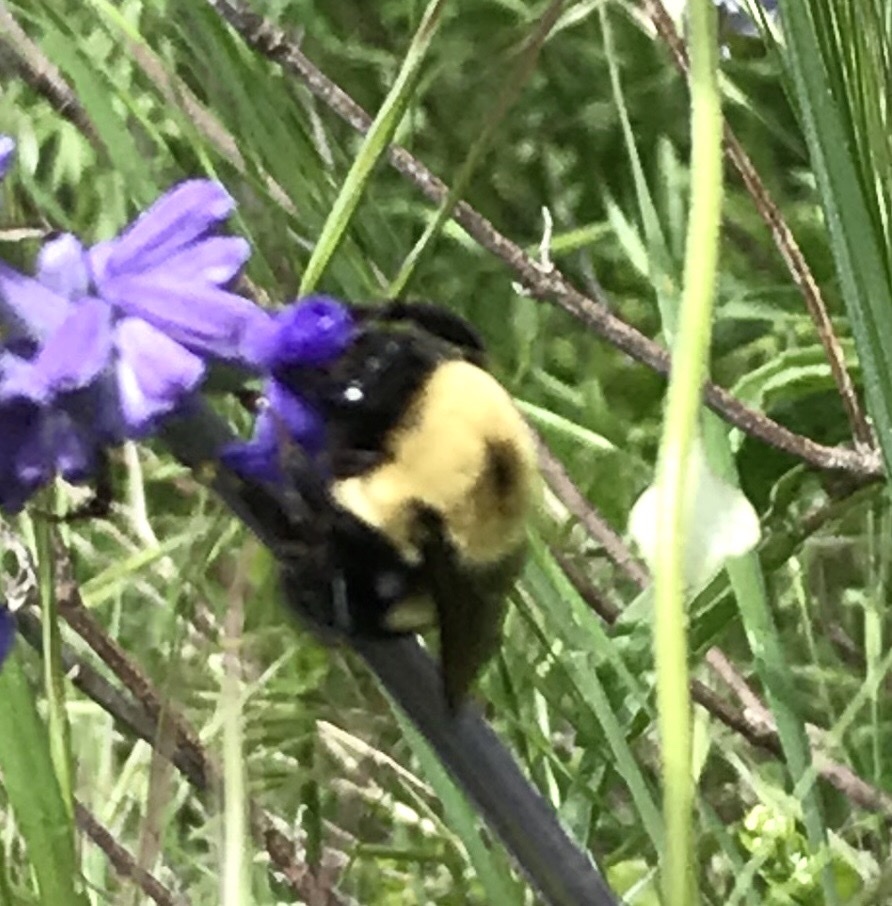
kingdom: Animalia
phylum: Arthropoda
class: Insecta
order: Hymenoptera
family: Apidae
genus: Bombus
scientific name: Bombus griseocollis
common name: Brown-belted bumble bee
